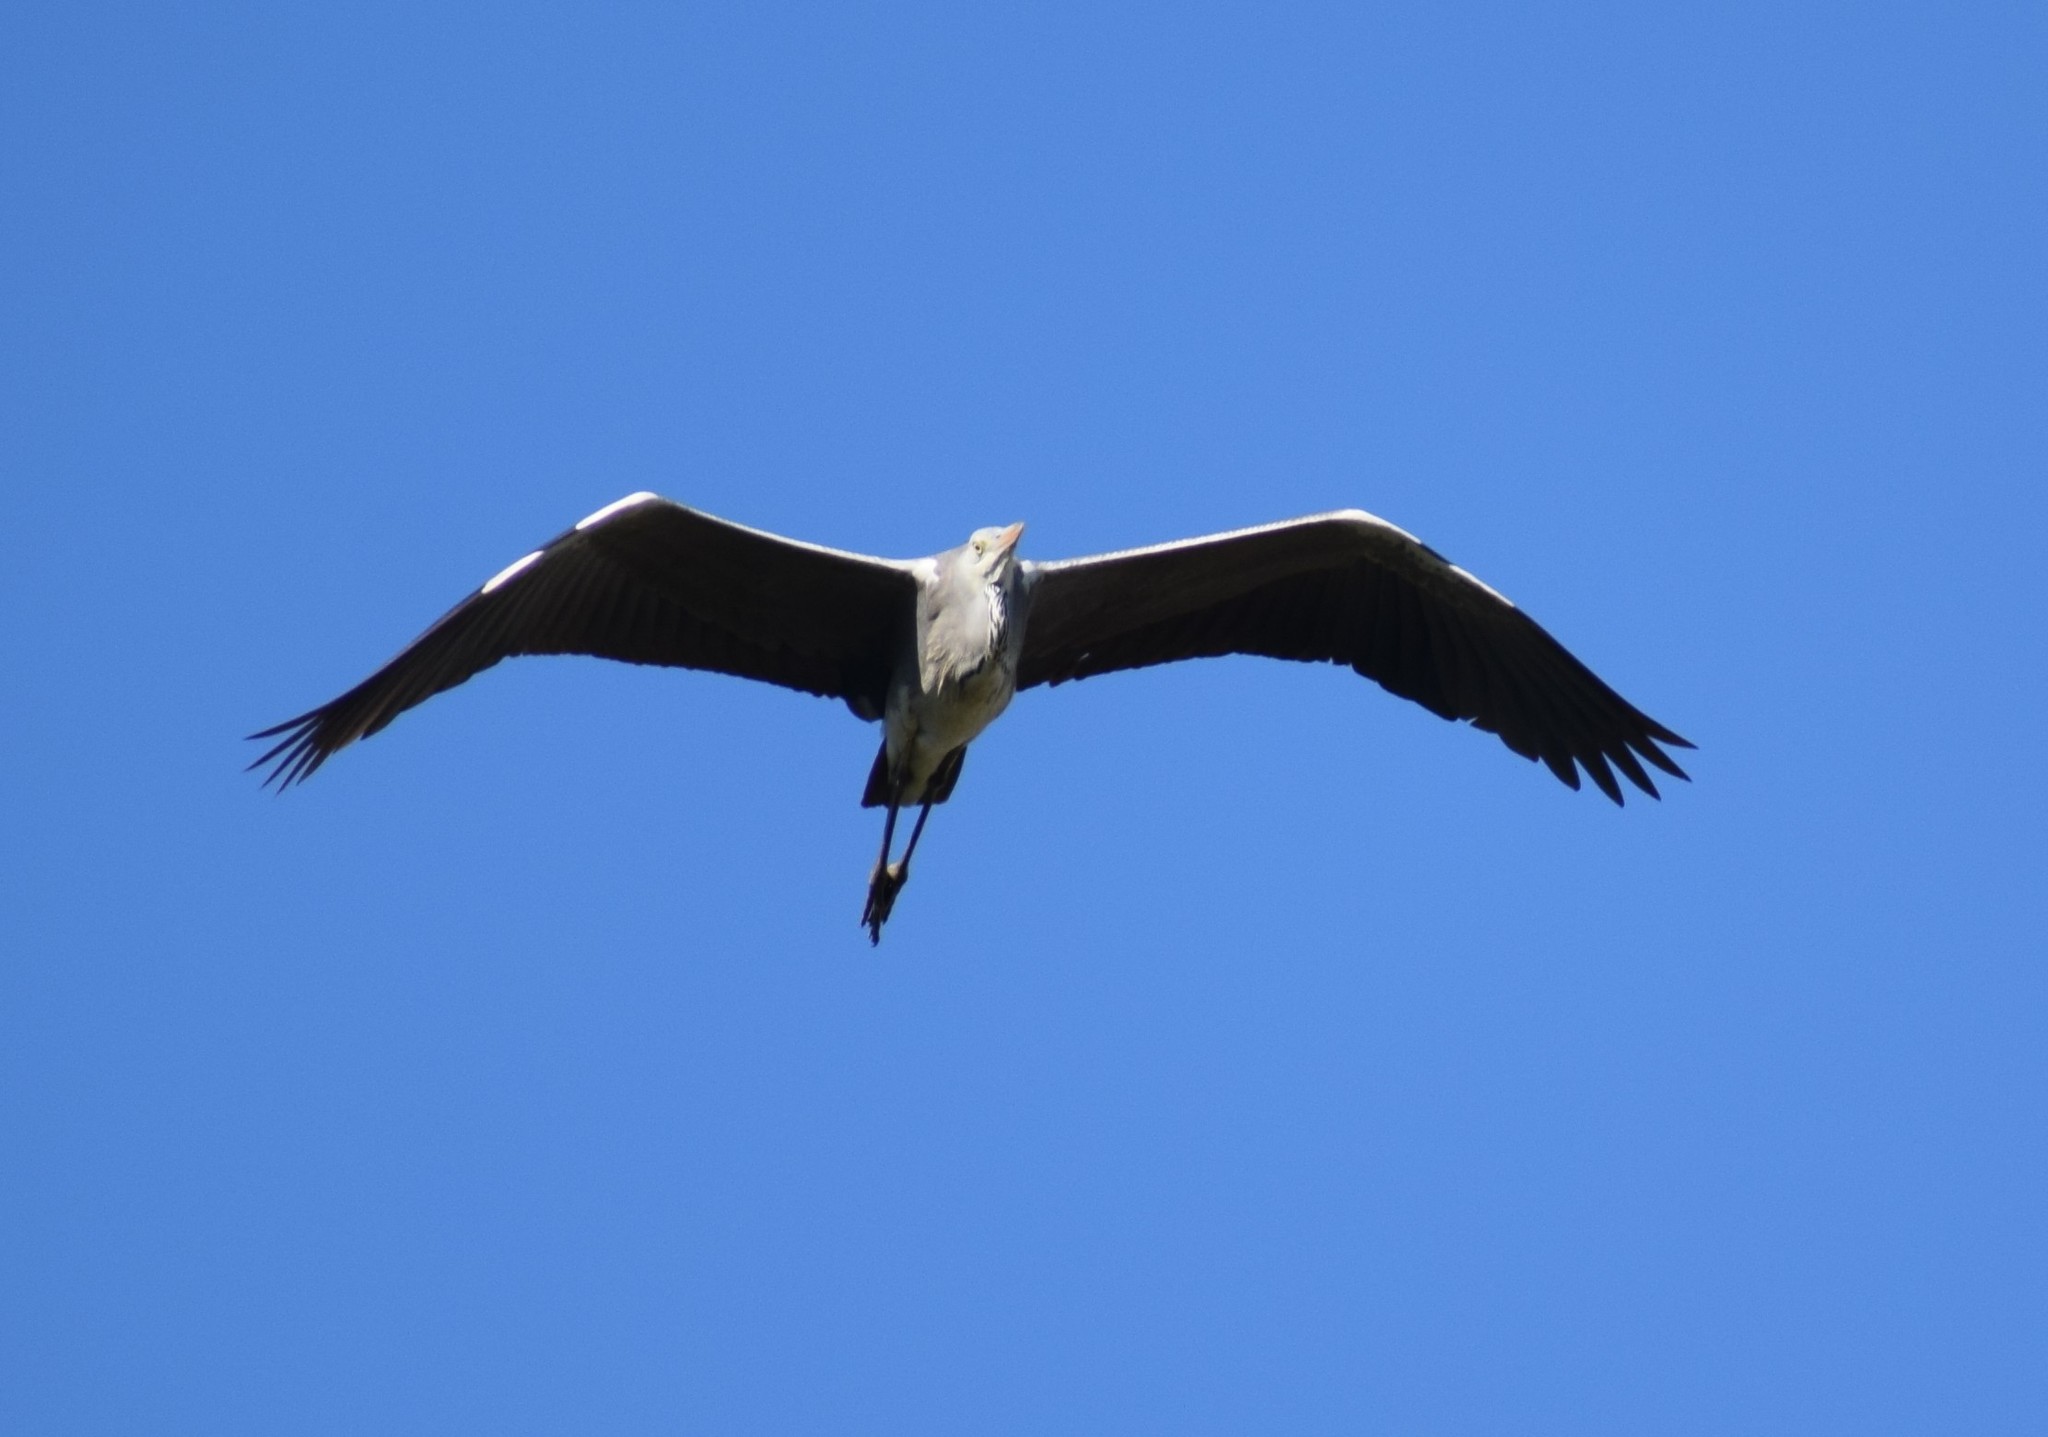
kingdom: Animalia
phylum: Chordata
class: Aves
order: Pelecaniformes
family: Ardeidae
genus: Ardea
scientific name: Ardea cinerea
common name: Grey heron
